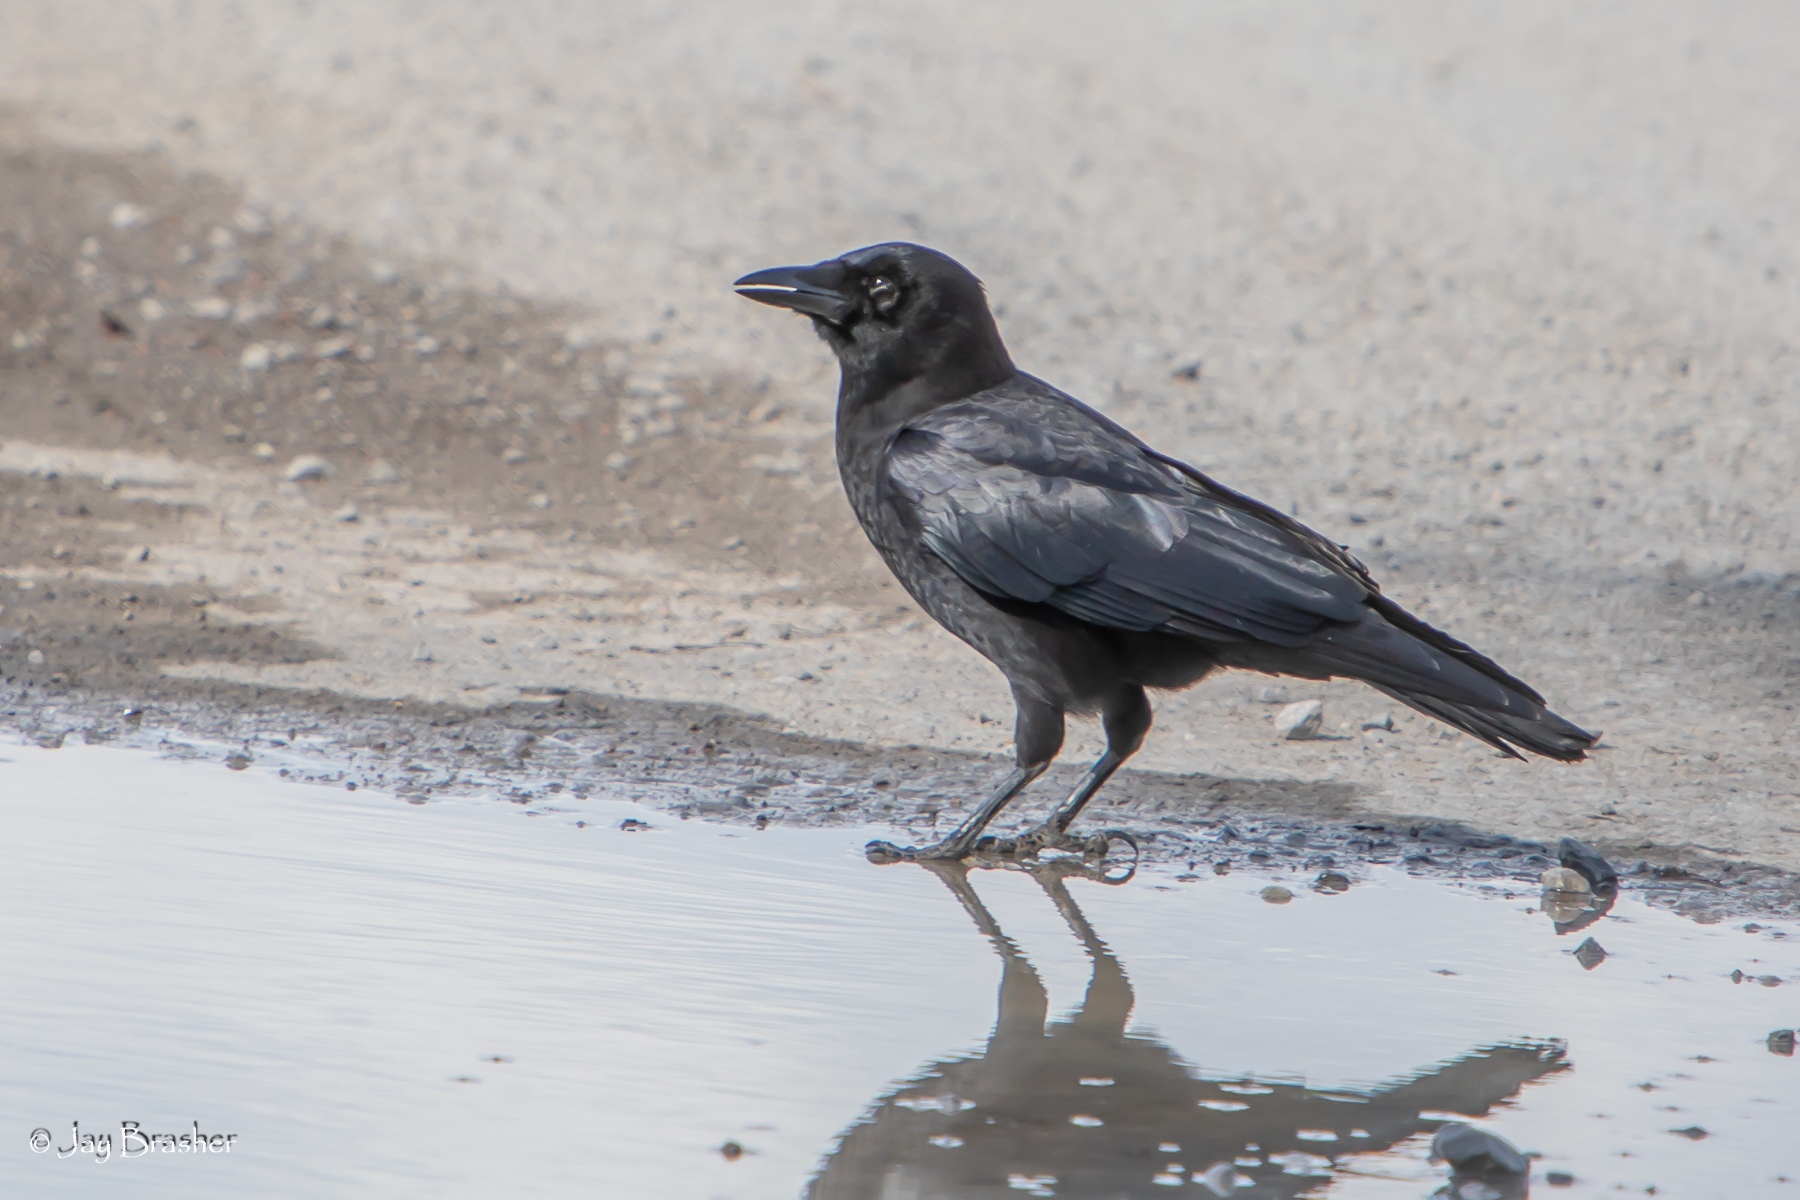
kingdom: Animalia
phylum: Chordata
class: Aves
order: Passeriformes
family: Corvidae
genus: Corvus
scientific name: Corvus brachyrhynchos
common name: American crow
